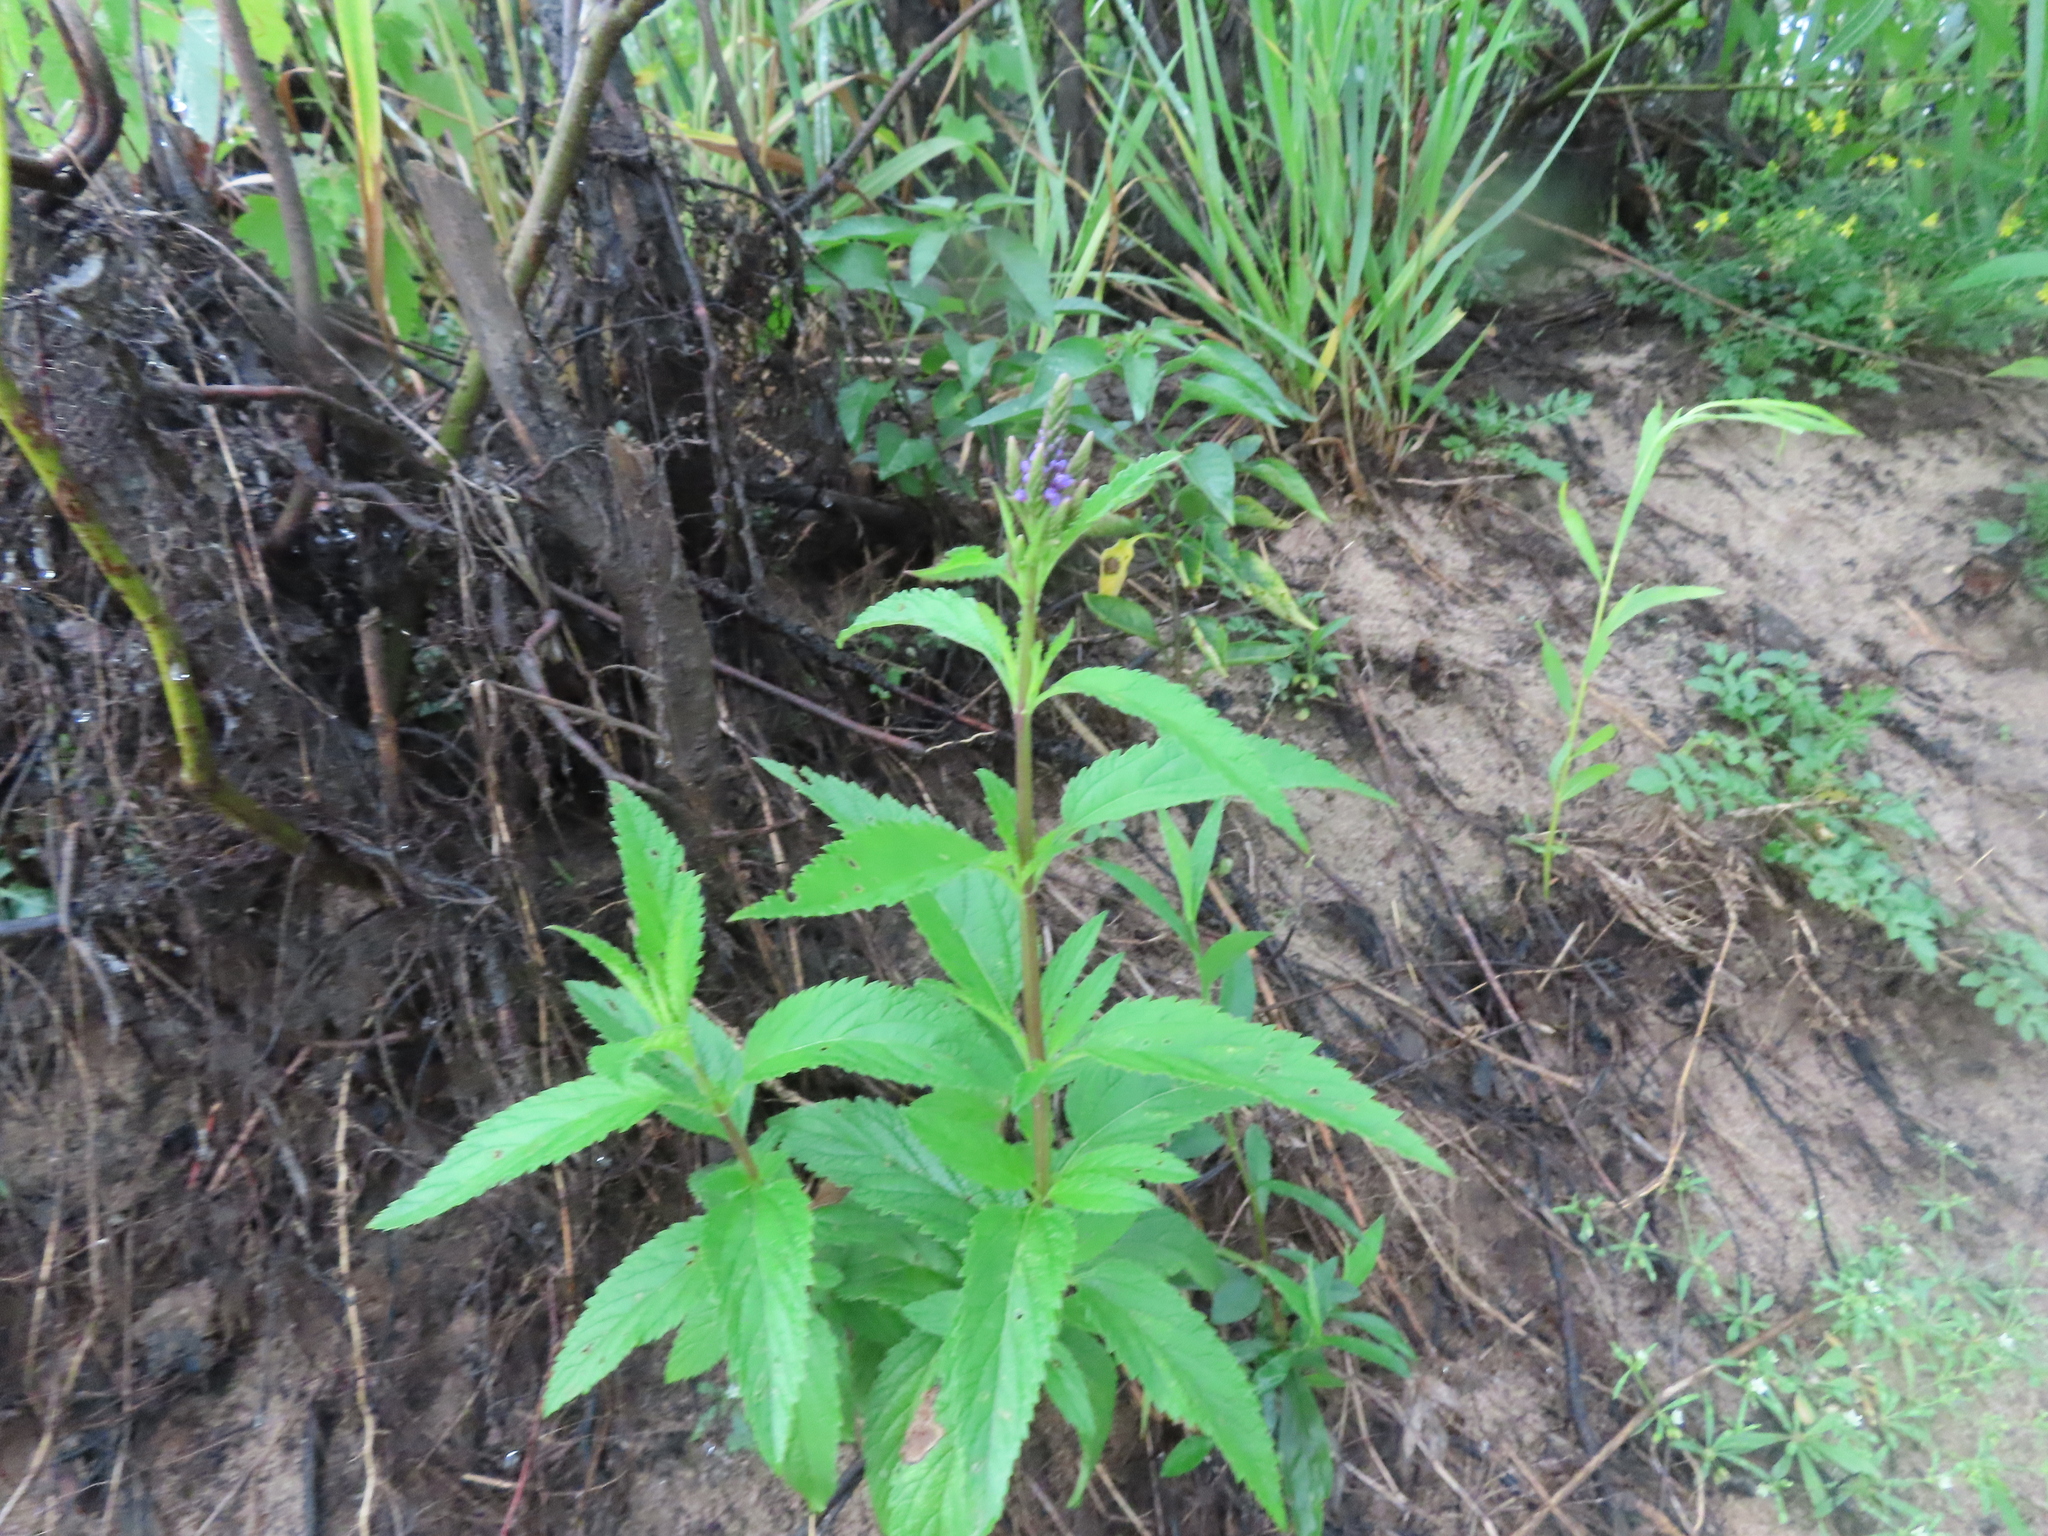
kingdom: Plantae
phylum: Tracheophyta
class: Magnoliopsida
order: Lamiales
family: Verbenaceae
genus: Verbena
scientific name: Verbena hastata
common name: American blue vervain
